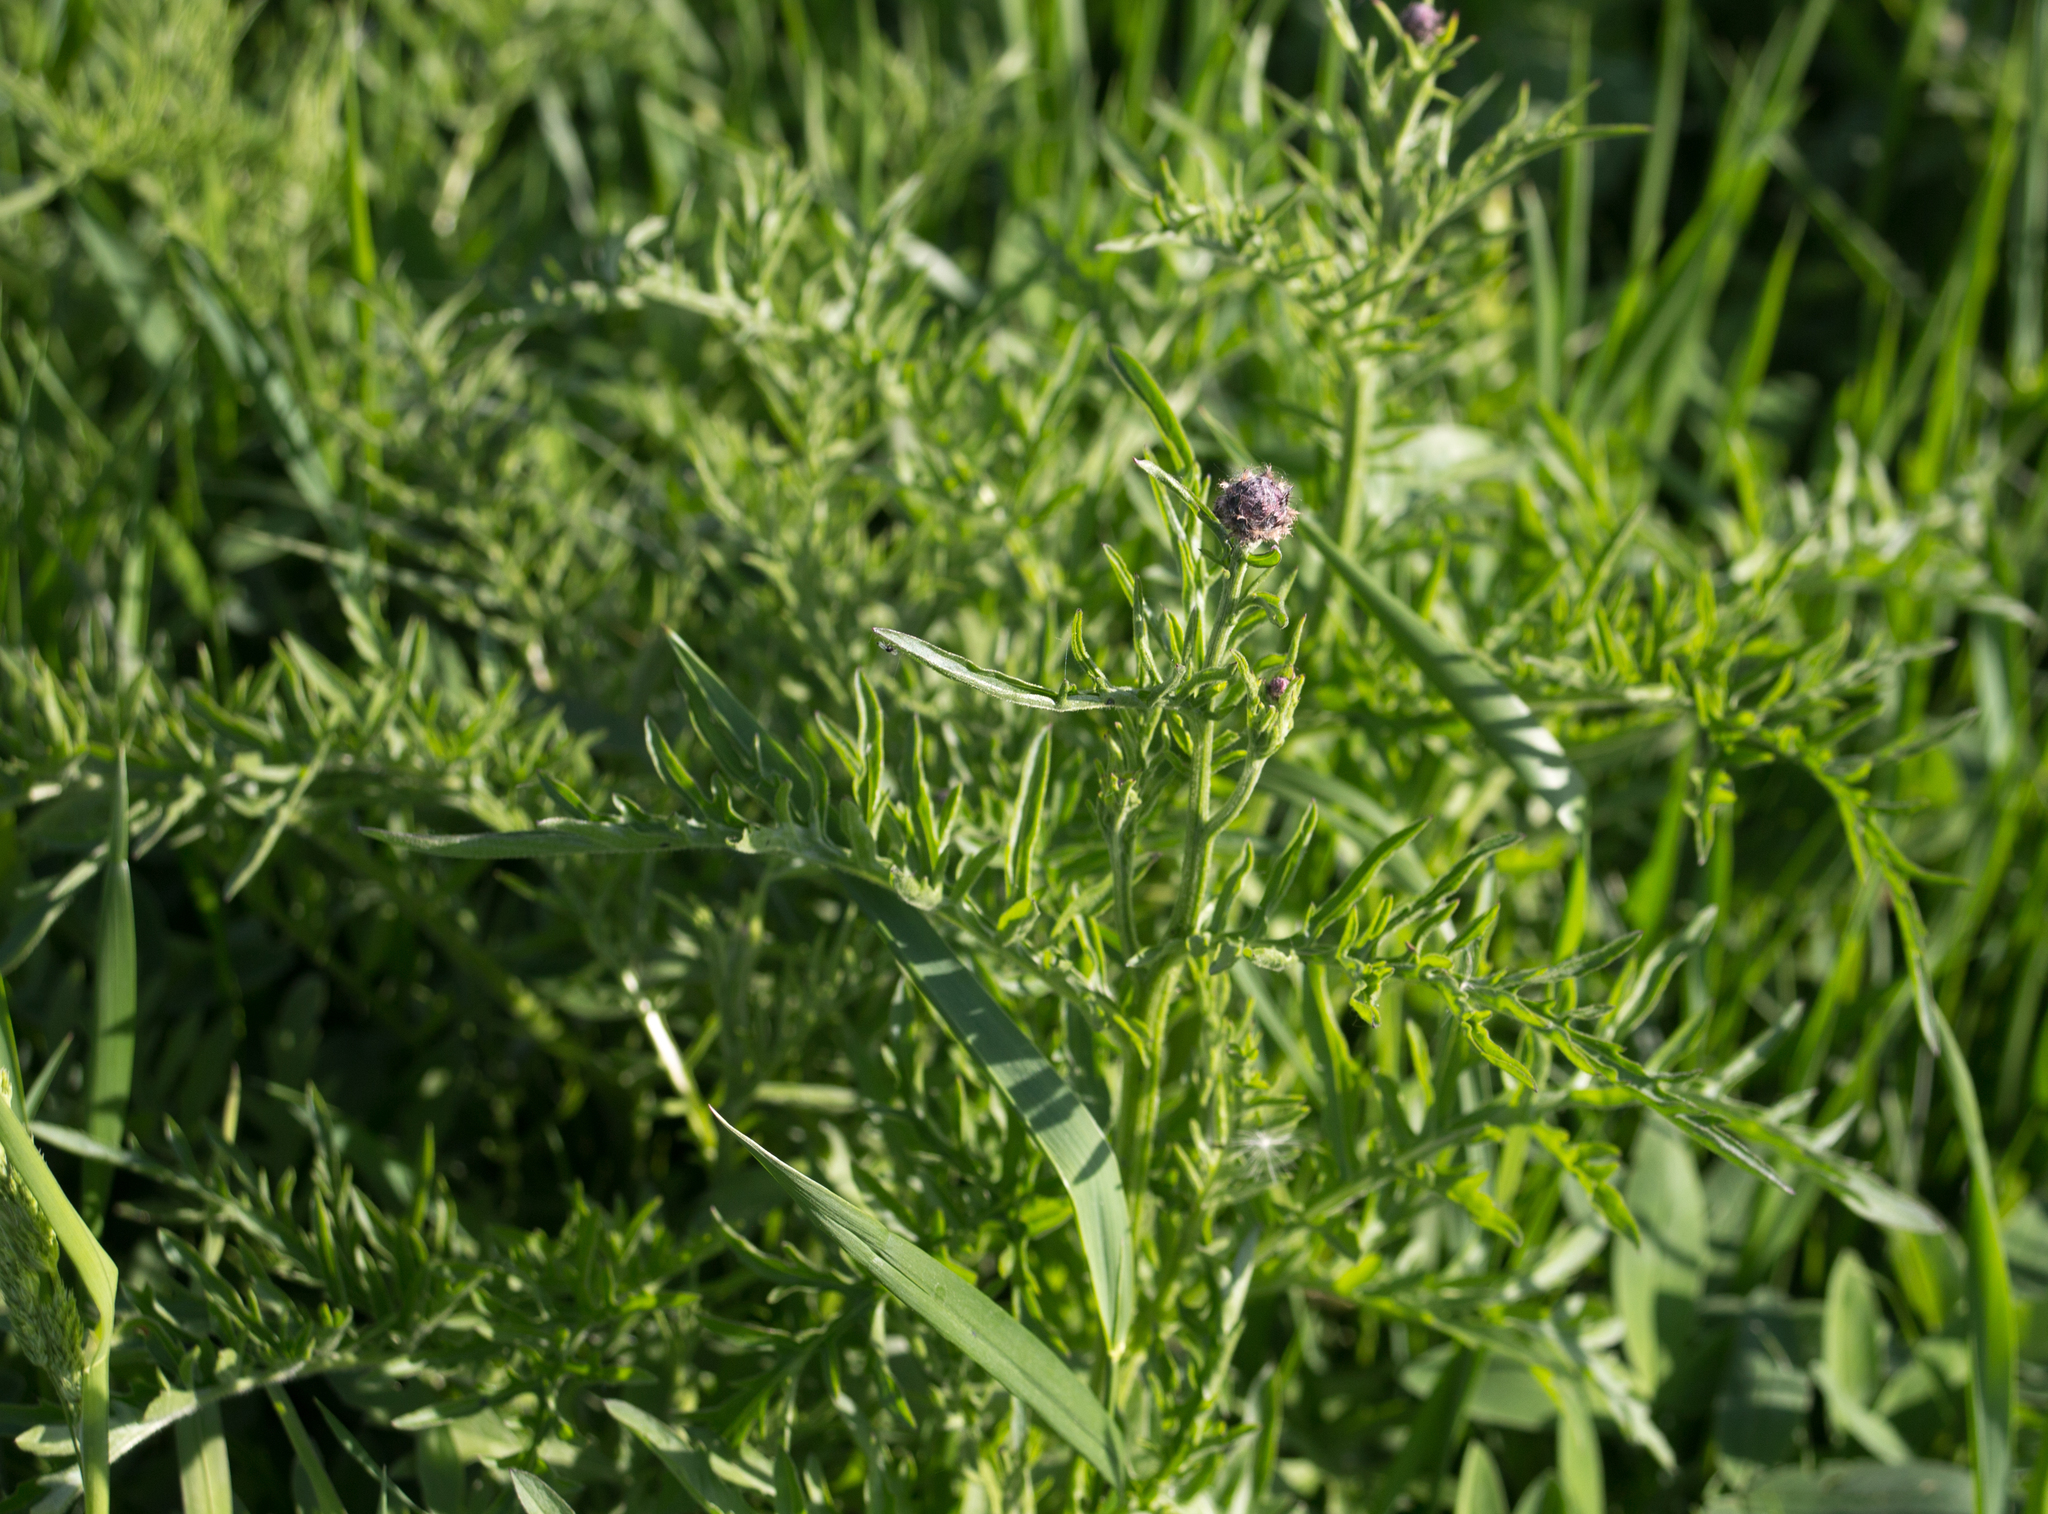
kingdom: Plantae
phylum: Tracheophyta
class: Magnoliopsida
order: Asterales
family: Asteraceae
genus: Centaurea
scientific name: Centaurea scabiosa
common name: Greater knapweed
